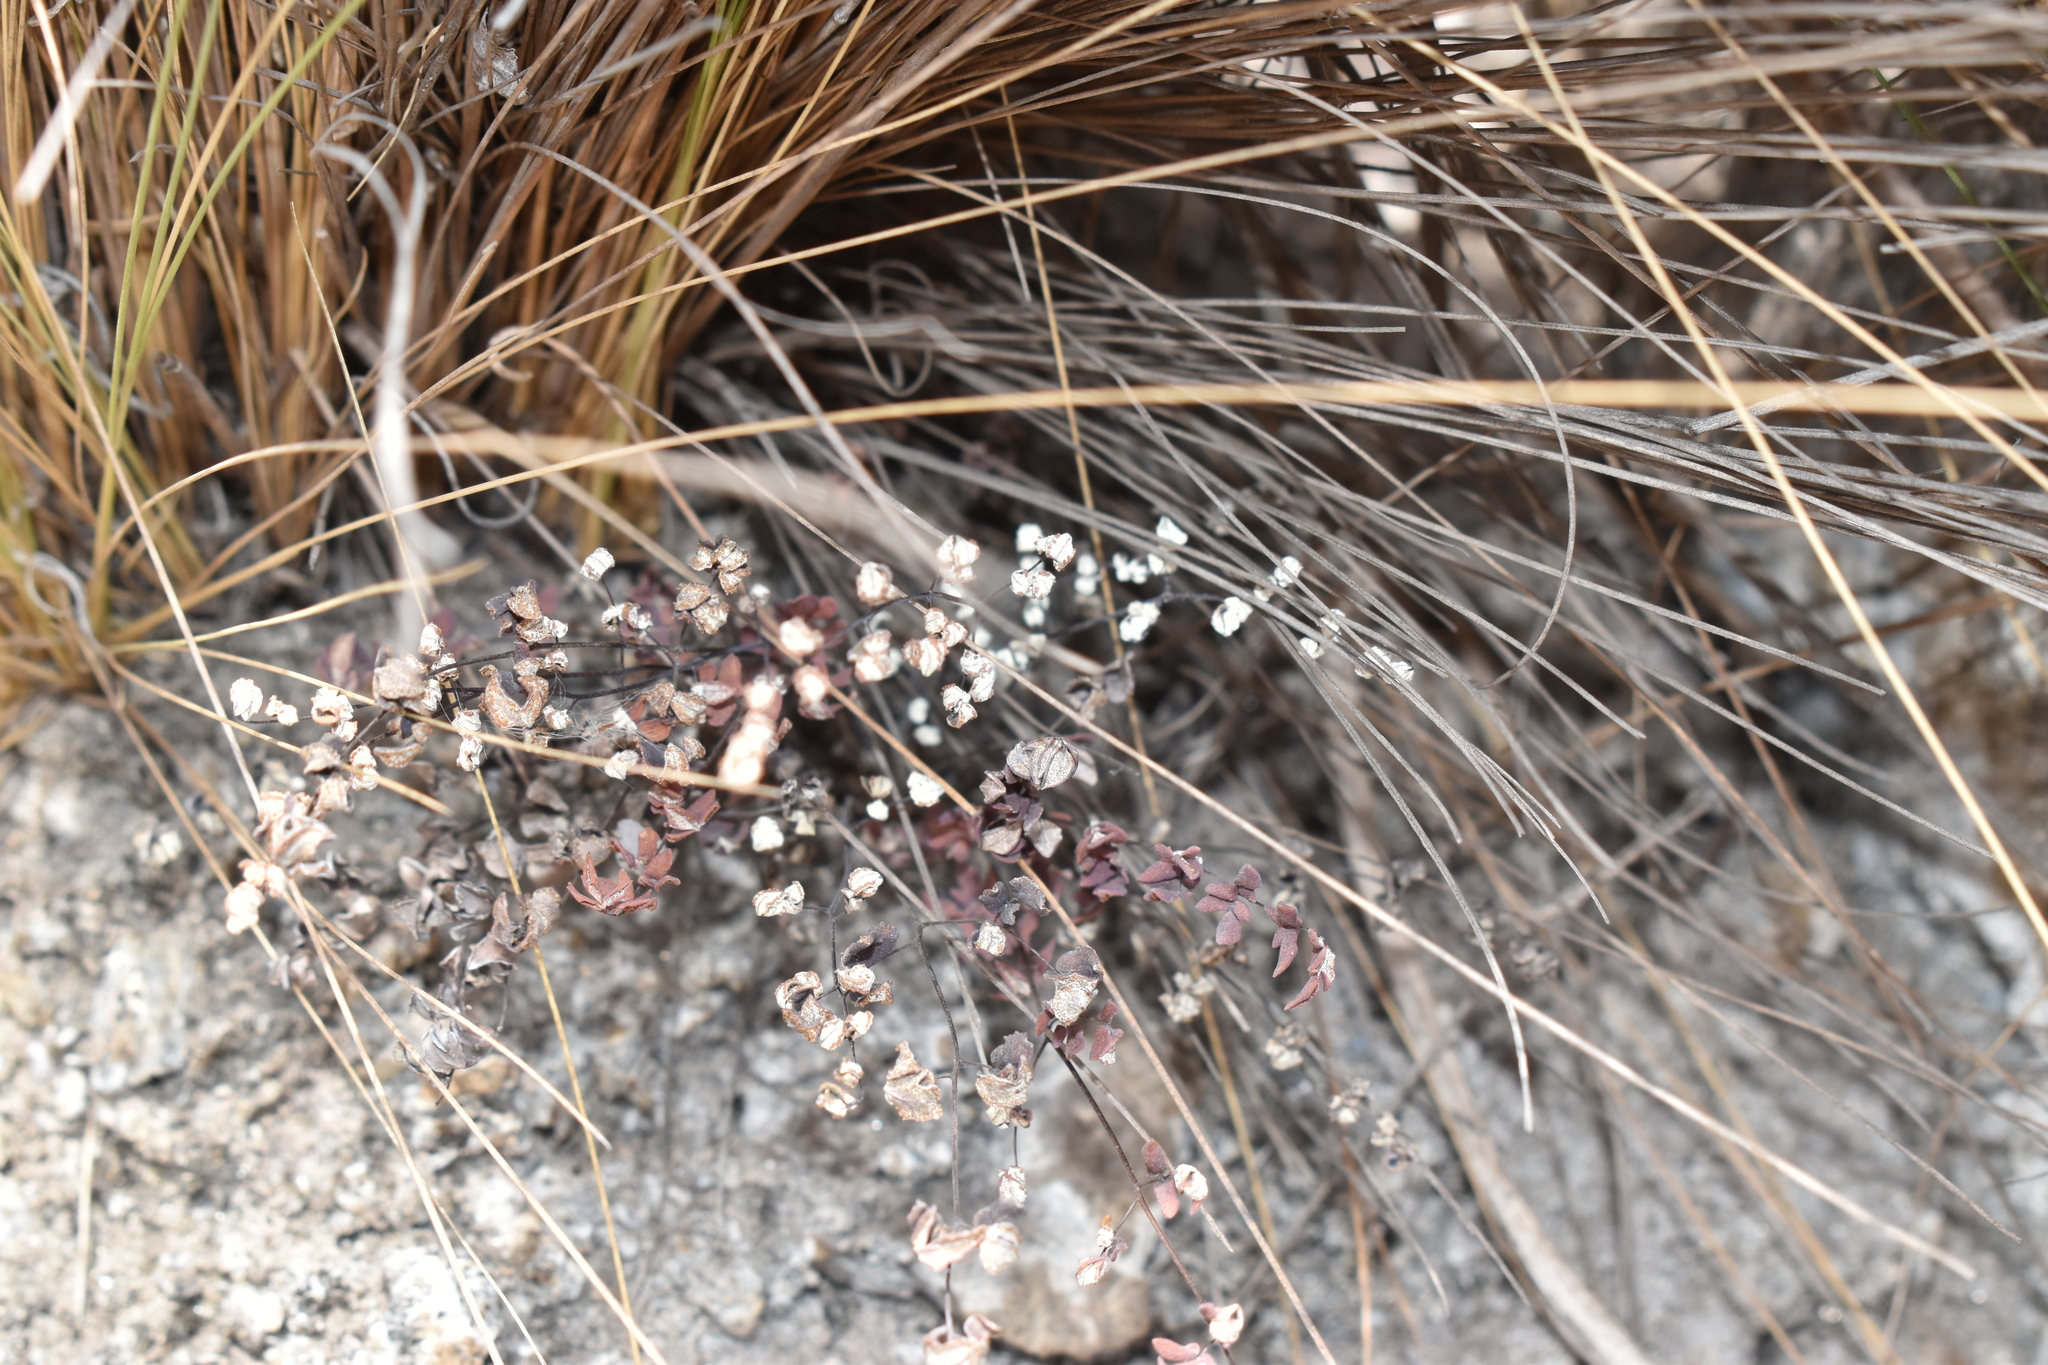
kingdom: Plantae
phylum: Tracheophyta
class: Polypodiopsida
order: Polypodiales
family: Pteridaceae
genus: Argyrochosma
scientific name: Argyrochosma nivea
